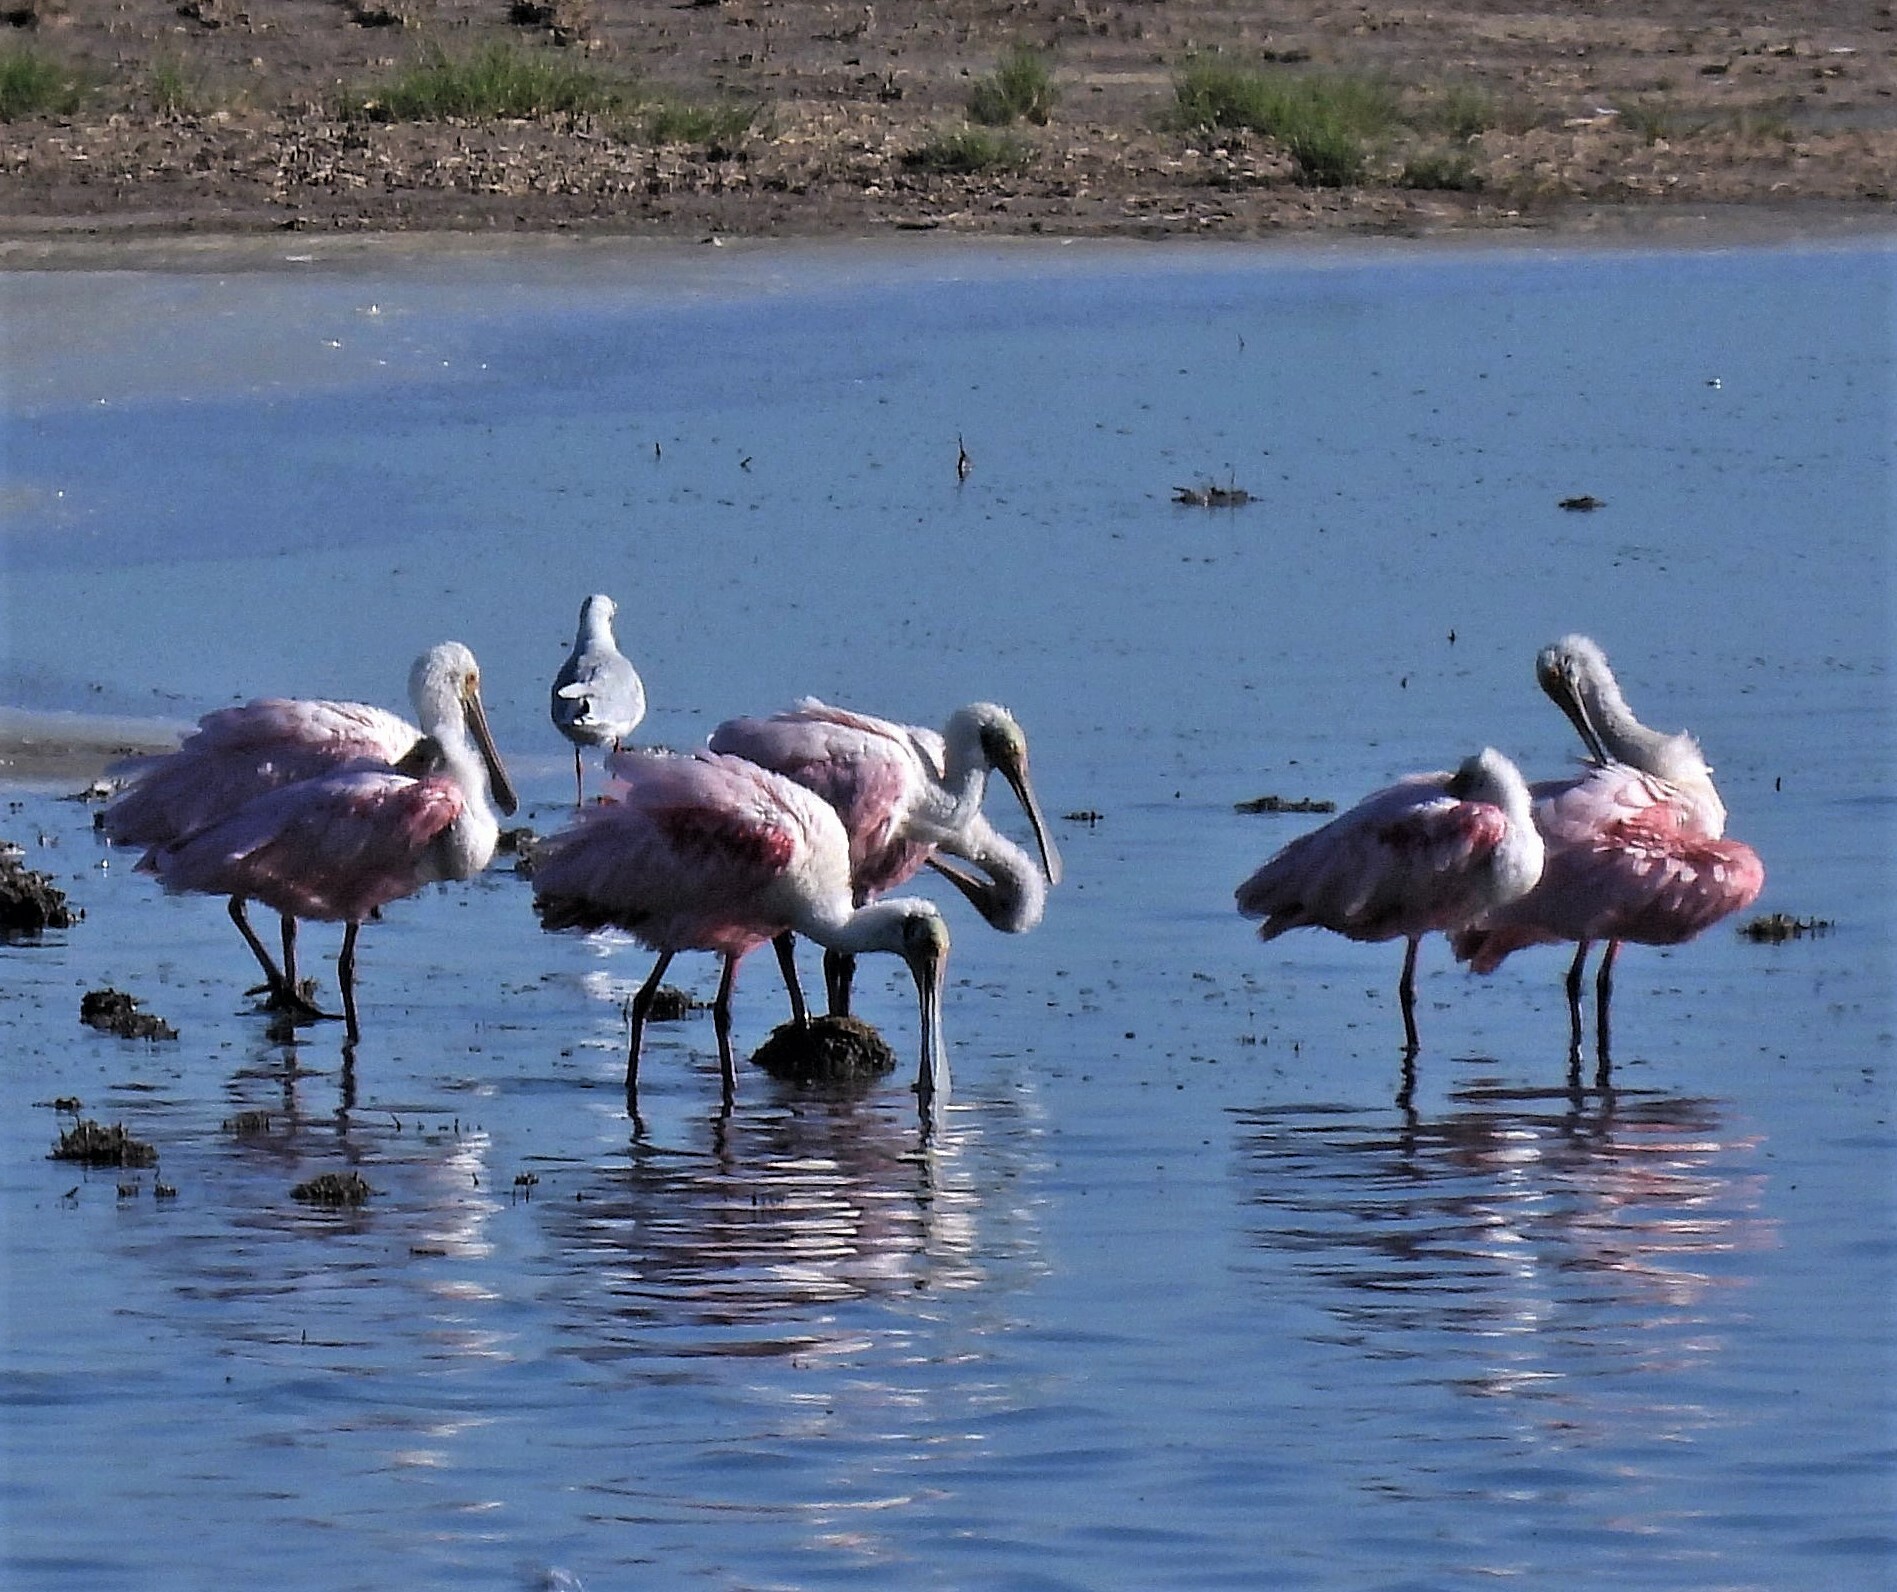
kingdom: Animalia
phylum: Chordata
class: Aves
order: Pelecaniformes
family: Threskiornithidae
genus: Platalea
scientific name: Platalea ajaja
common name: Roseate spoonbill
